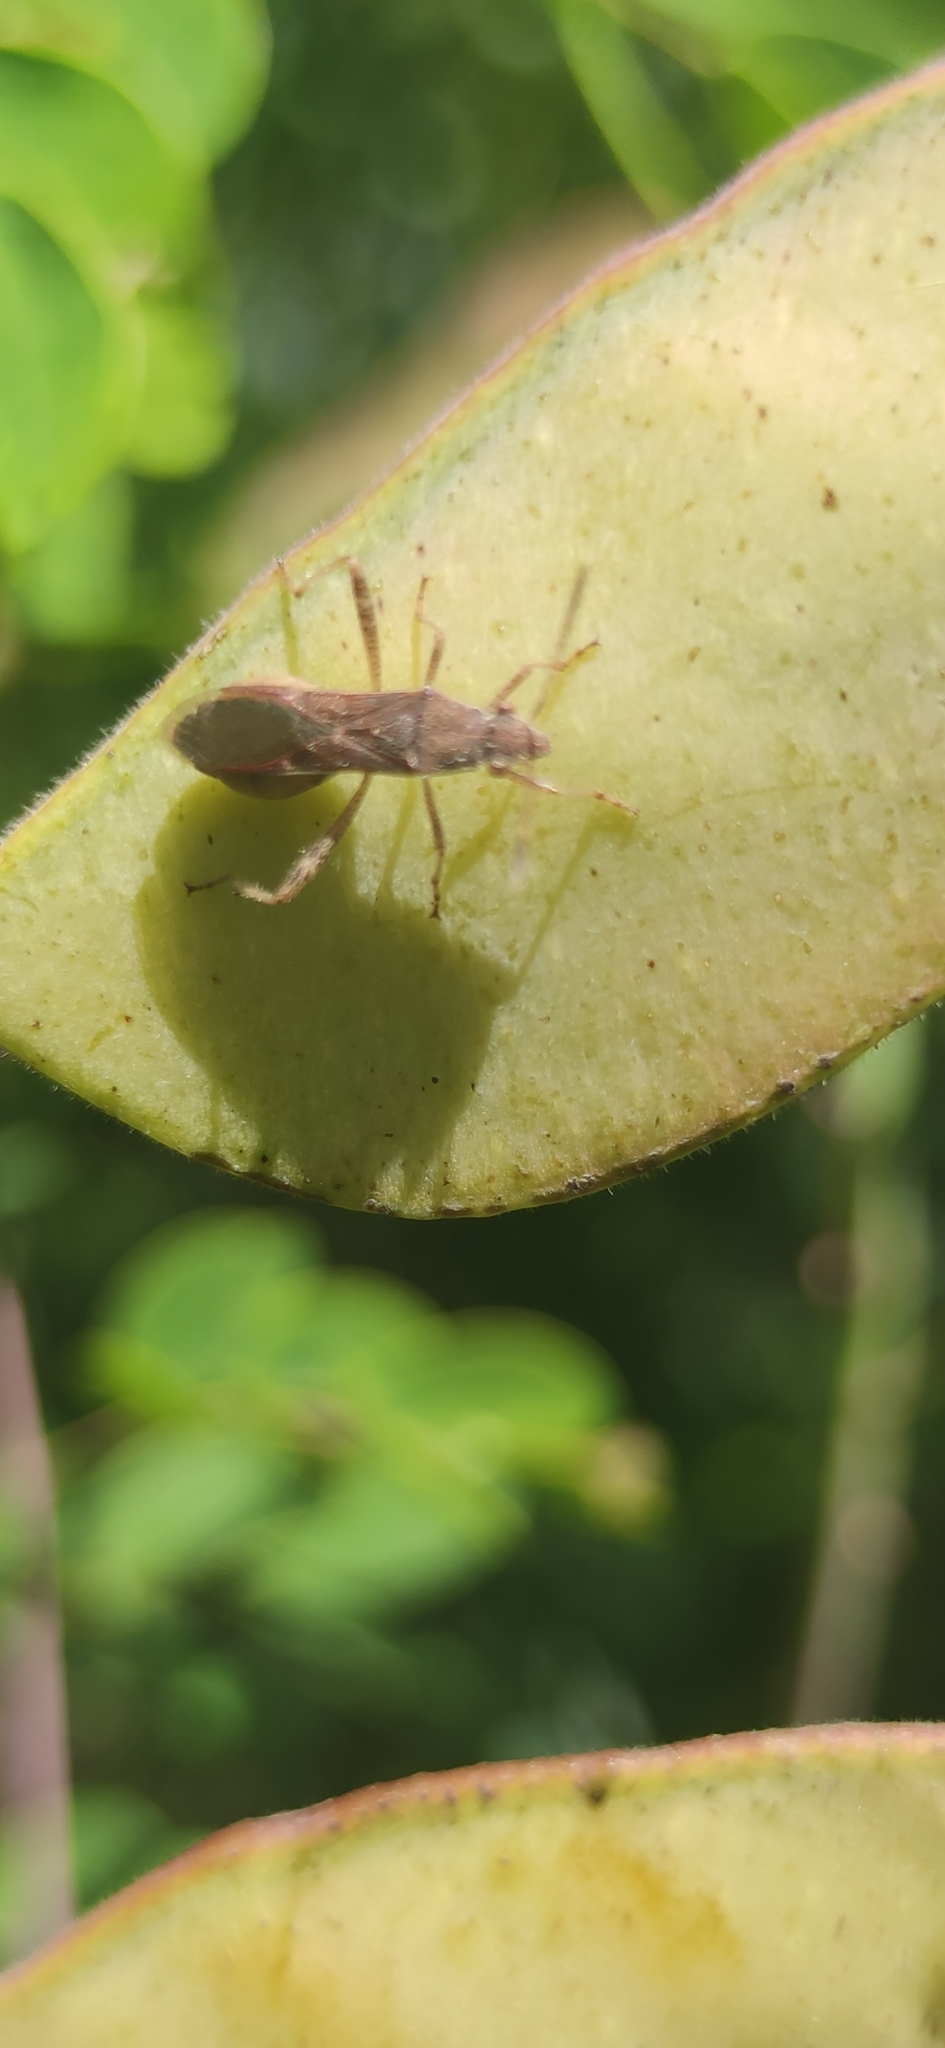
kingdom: Animalia
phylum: Arthropoda
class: Insecta
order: Hemiptera
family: Alydidae
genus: Burtinus
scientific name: Burtinus notatipennis
